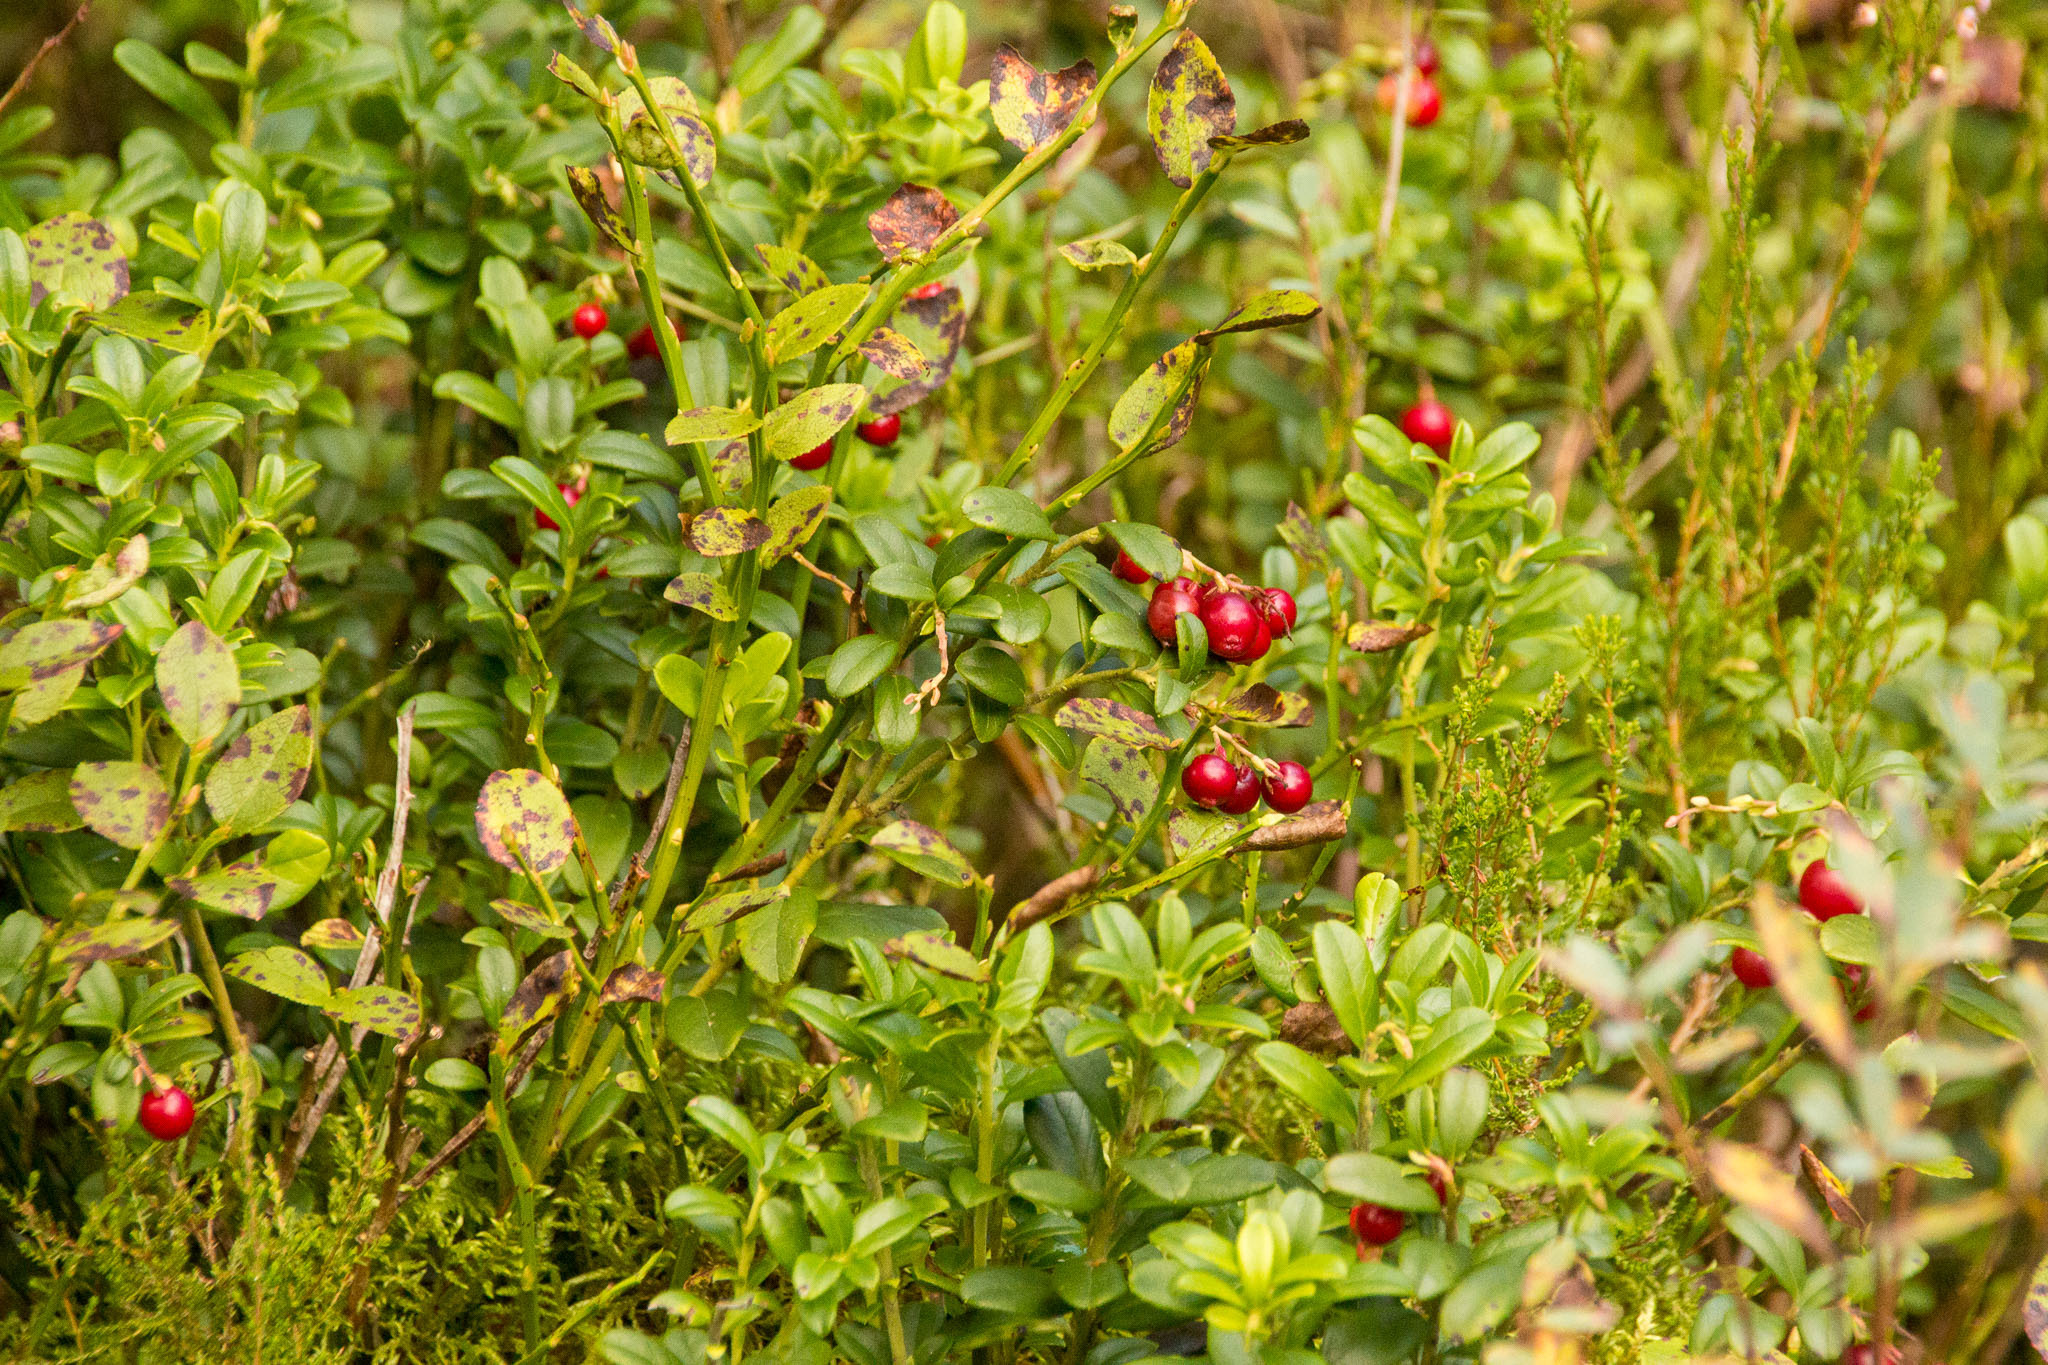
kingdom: Plantae
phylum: Tracheophyta
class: Magnoliopsida
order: Ericales
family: Ericaceae
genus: Vaccinium
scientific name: Vaccinium vitis-idaea
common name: Cowberry
